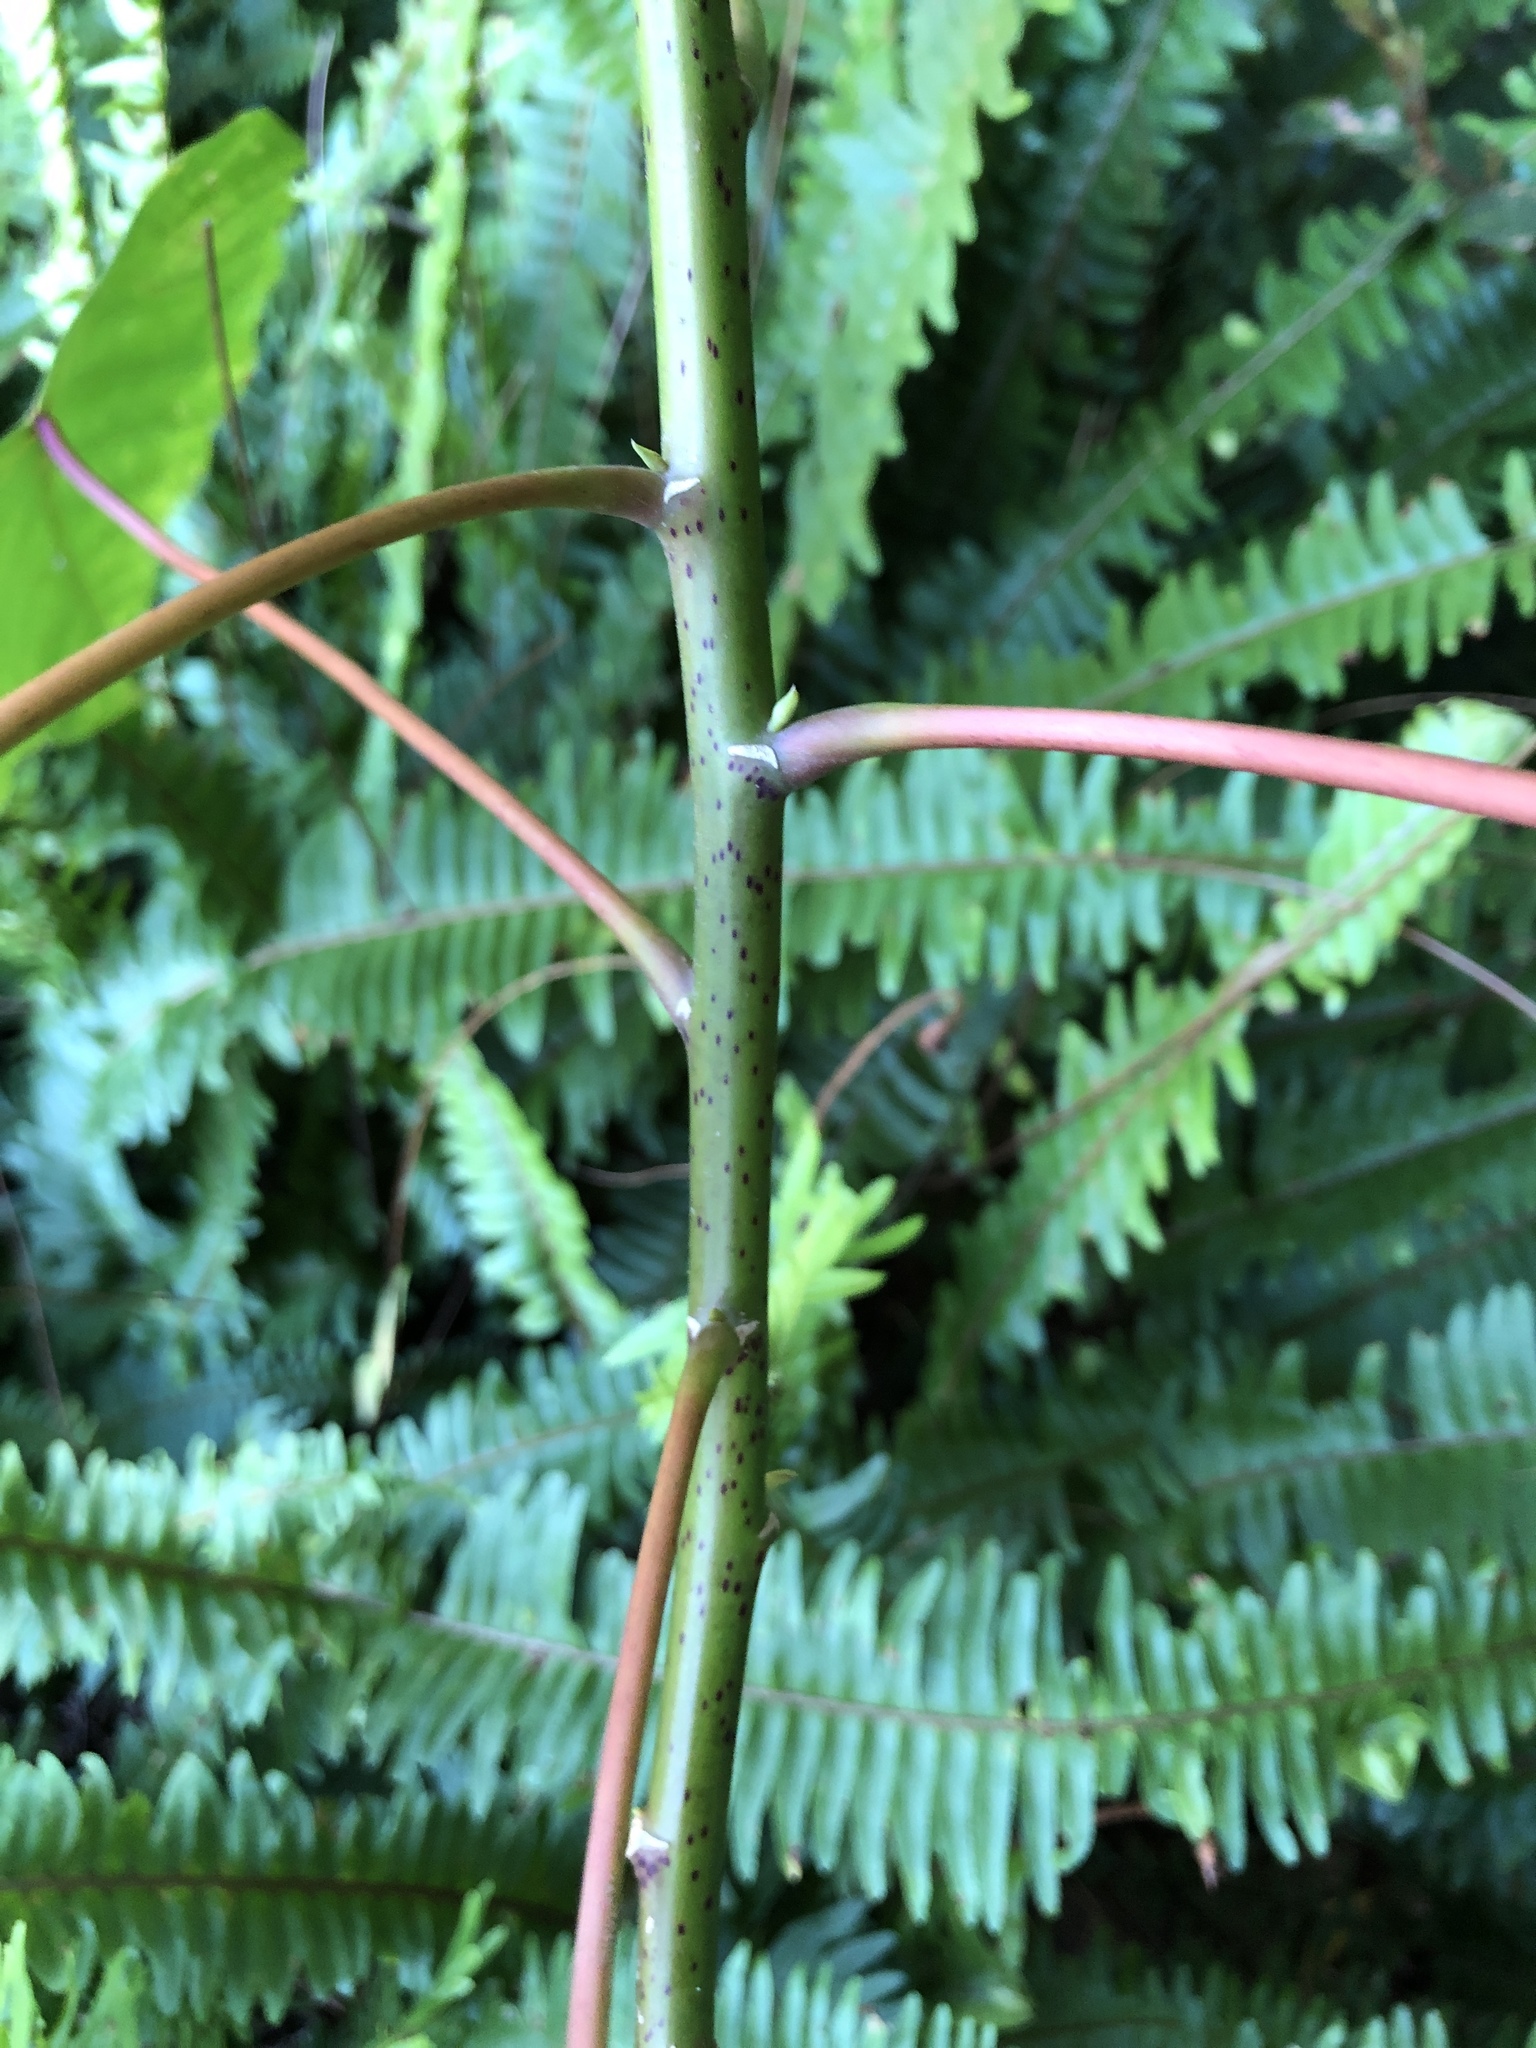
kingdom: Plantae
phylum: Tracheophyta
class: Magnoliopsida
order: Malpighiales
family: Euphorbiaceae
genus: Homalanthus
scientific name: Homalanthus populifolius
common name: Queensland poplar
